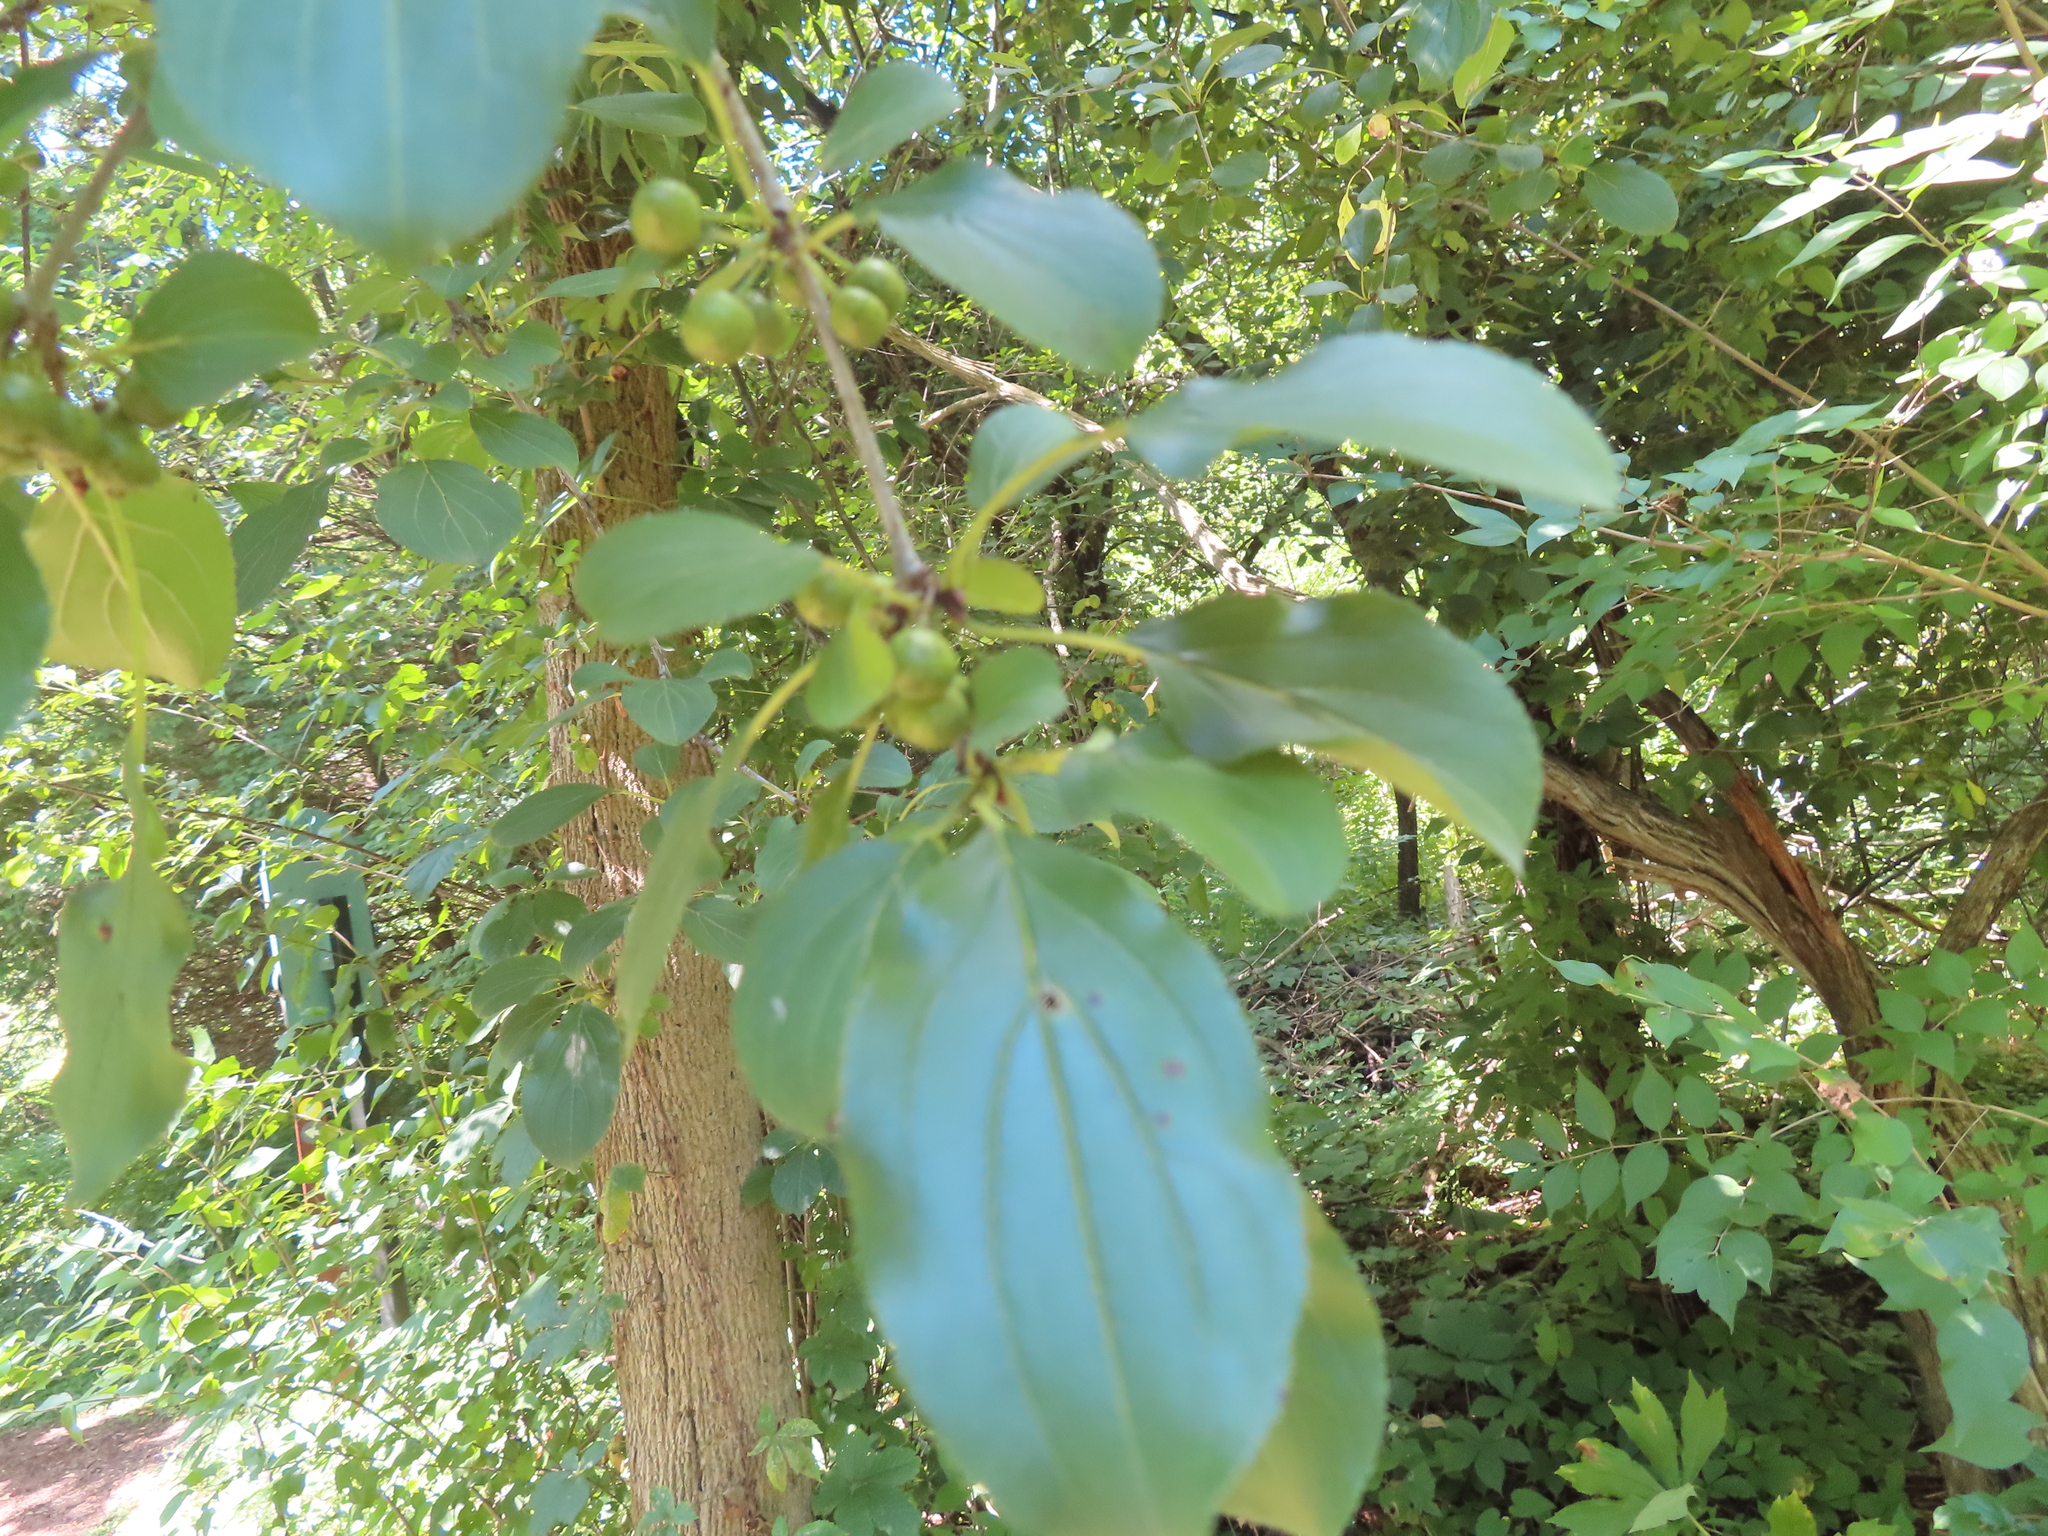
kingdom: Plantae
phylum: Tracheophyta
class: Magnoliopsida
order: Rosales
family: Rhamnaceae
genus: Rhamnus
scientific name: Rhamnus cathartica
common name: Common buckthorn
